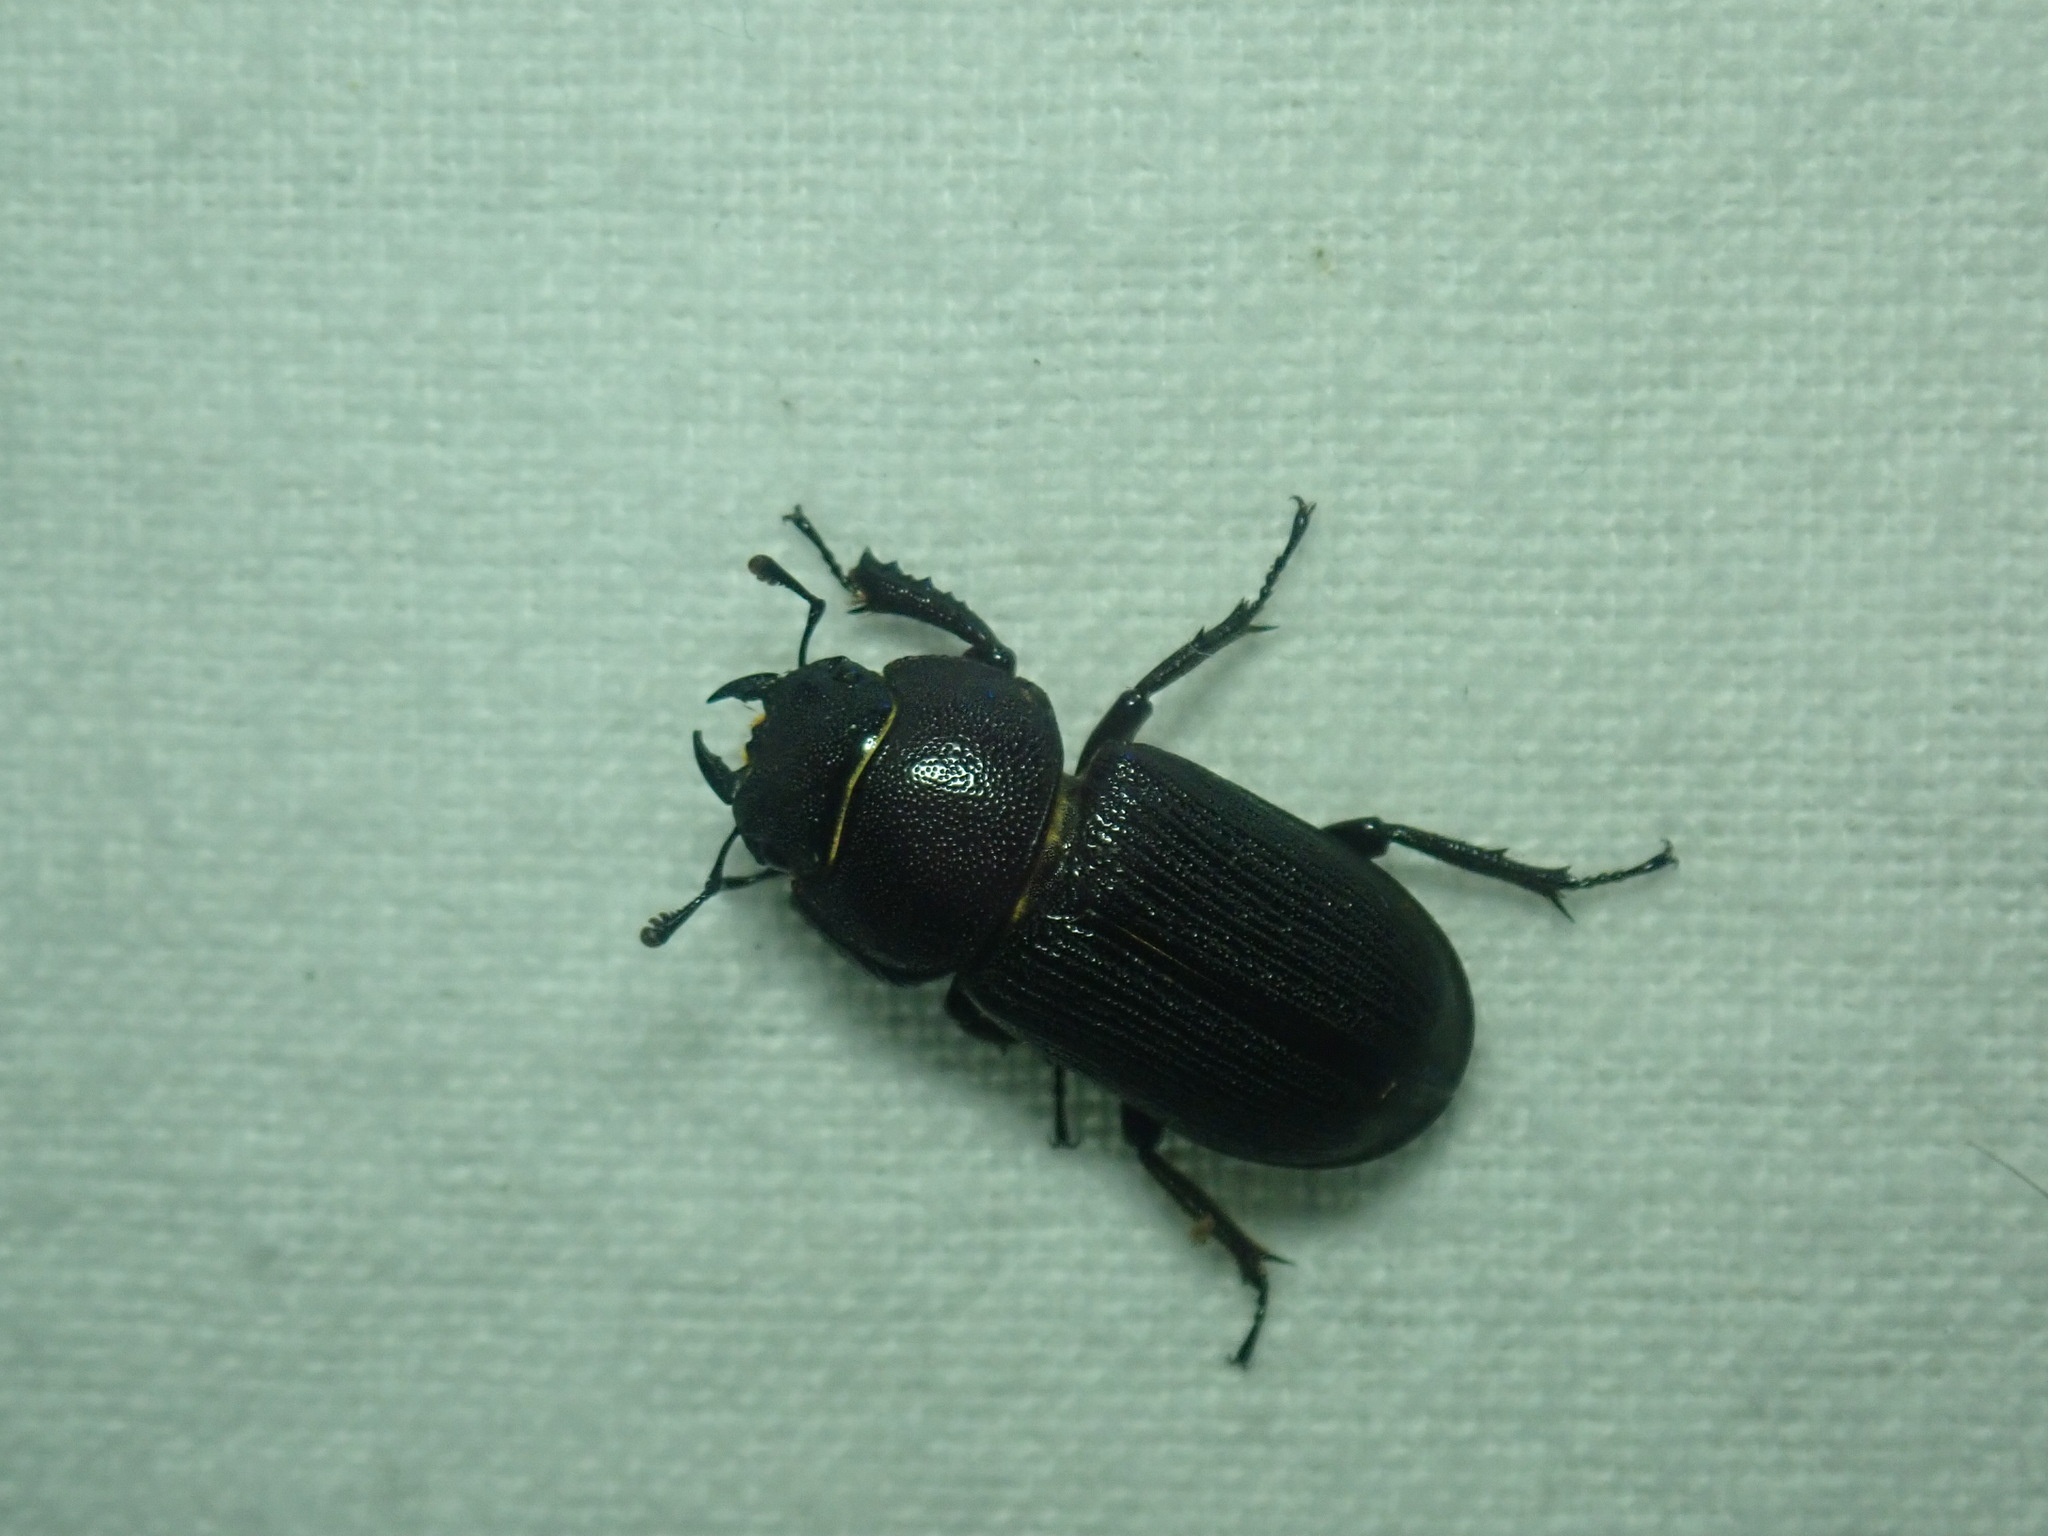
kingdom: Animalia
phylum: Arthropoda
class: Insecta
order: Coleoptera
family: Lucanidae
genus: Dorcus
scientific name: Dorcus parallelus
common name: Antelope beetle
